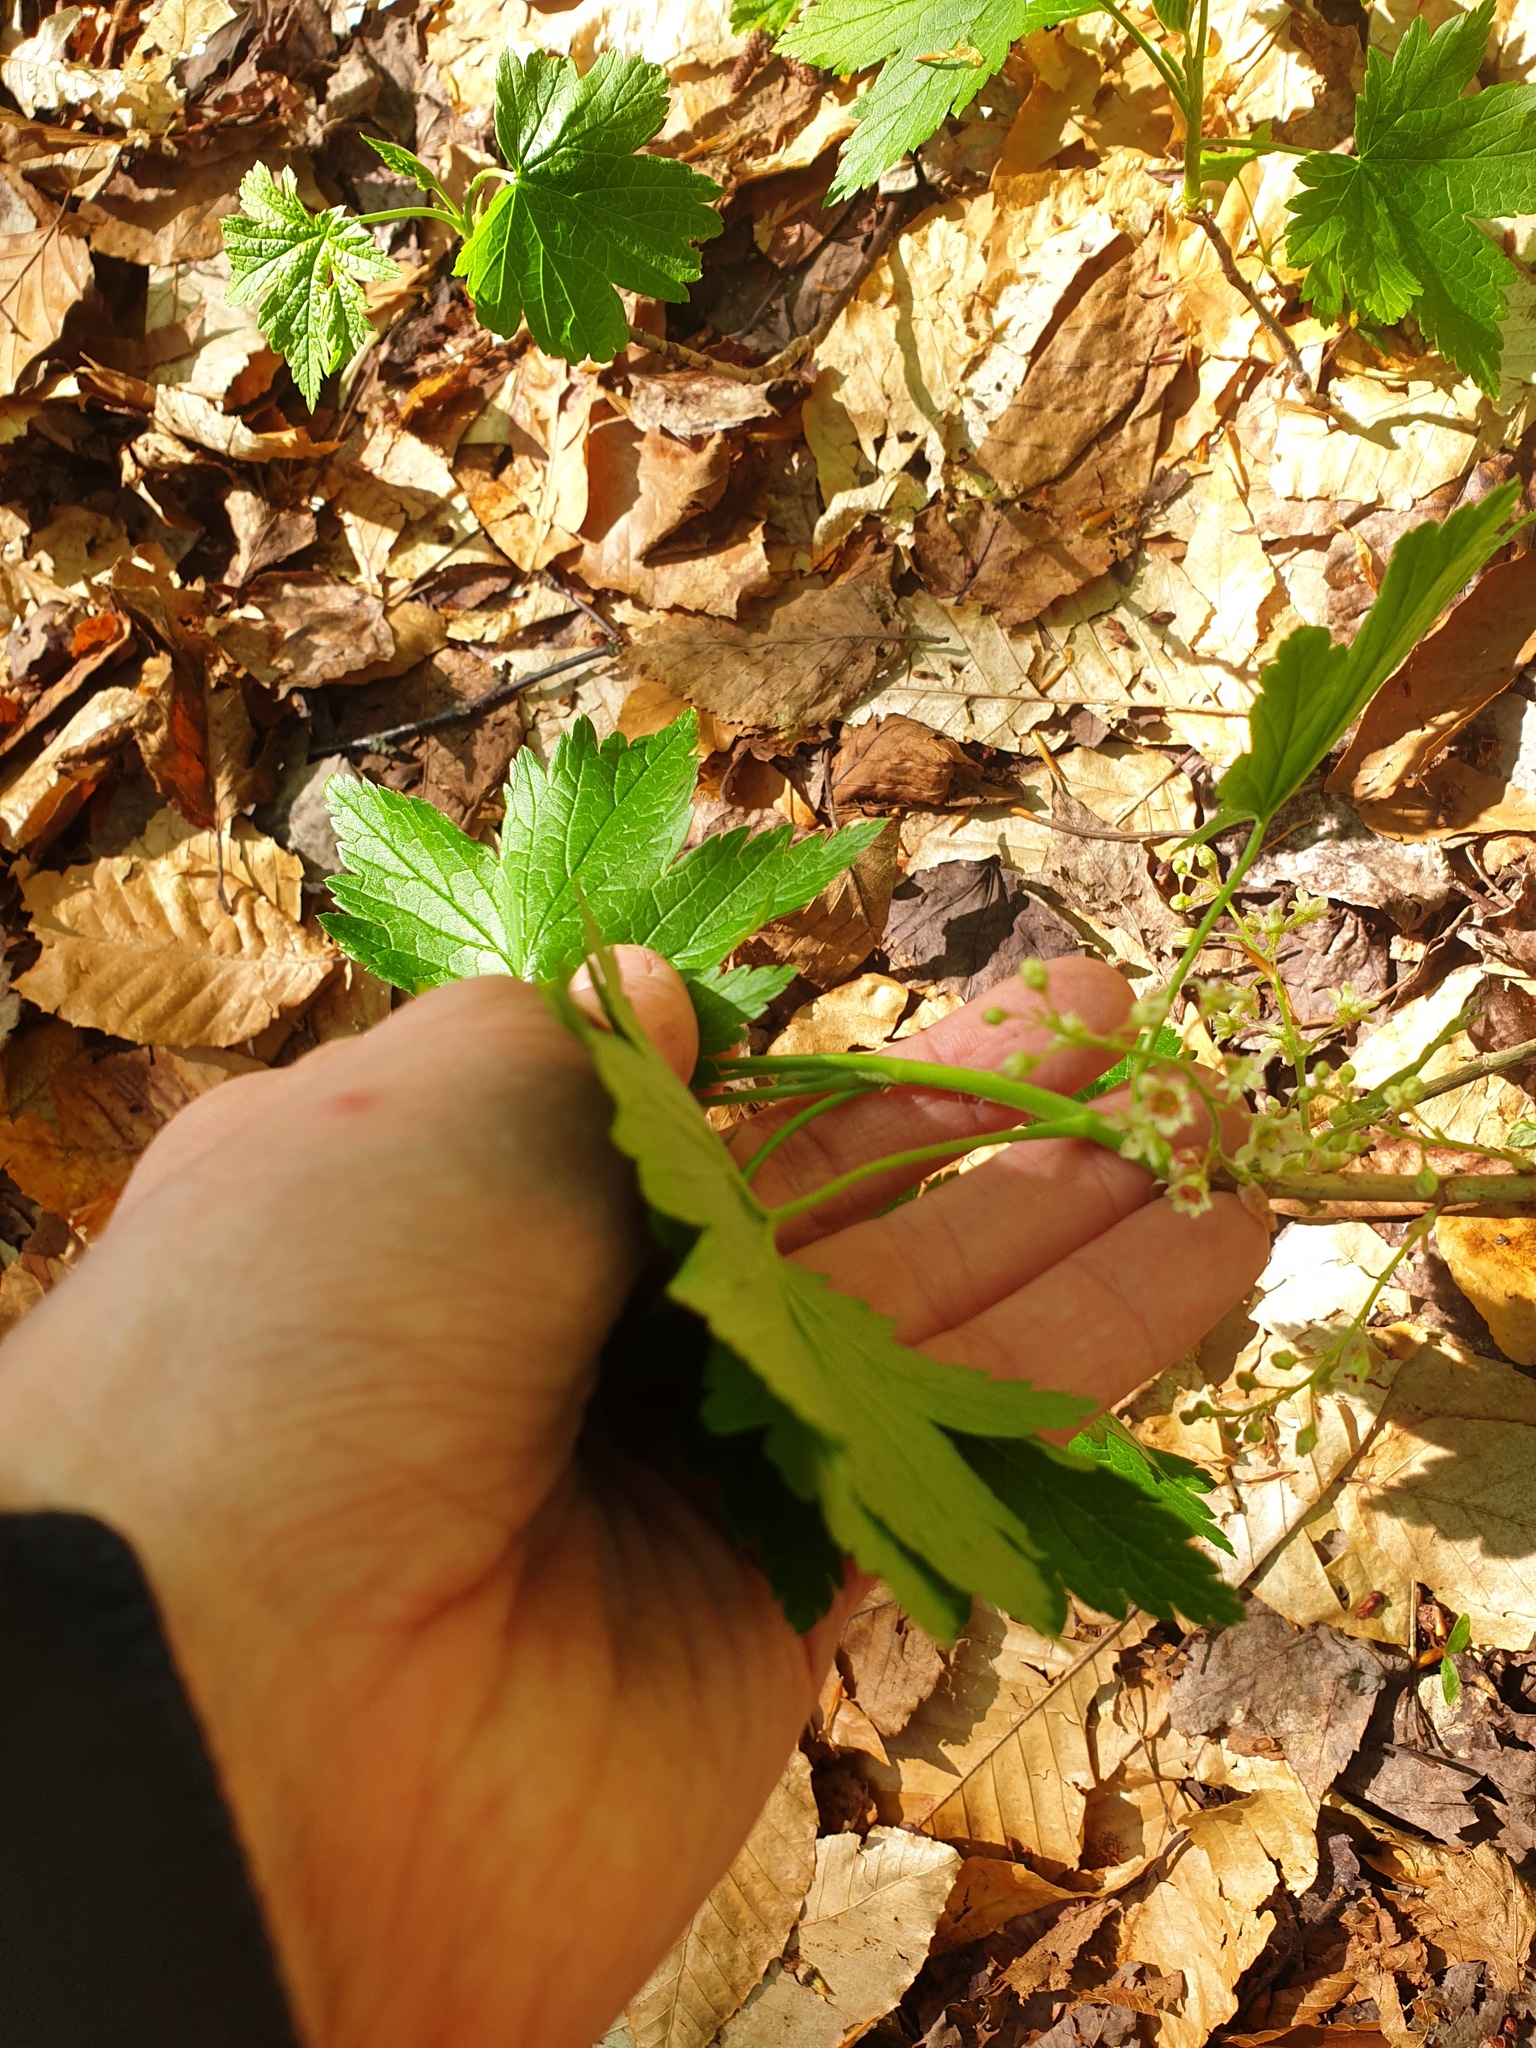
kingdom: Plantae
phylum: Tracheophyta
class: Magnoliopsida
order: Saxifragales
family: Grossulariaceae
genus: Ribes
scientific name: Ribes glandulosum
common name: Skunk currant
